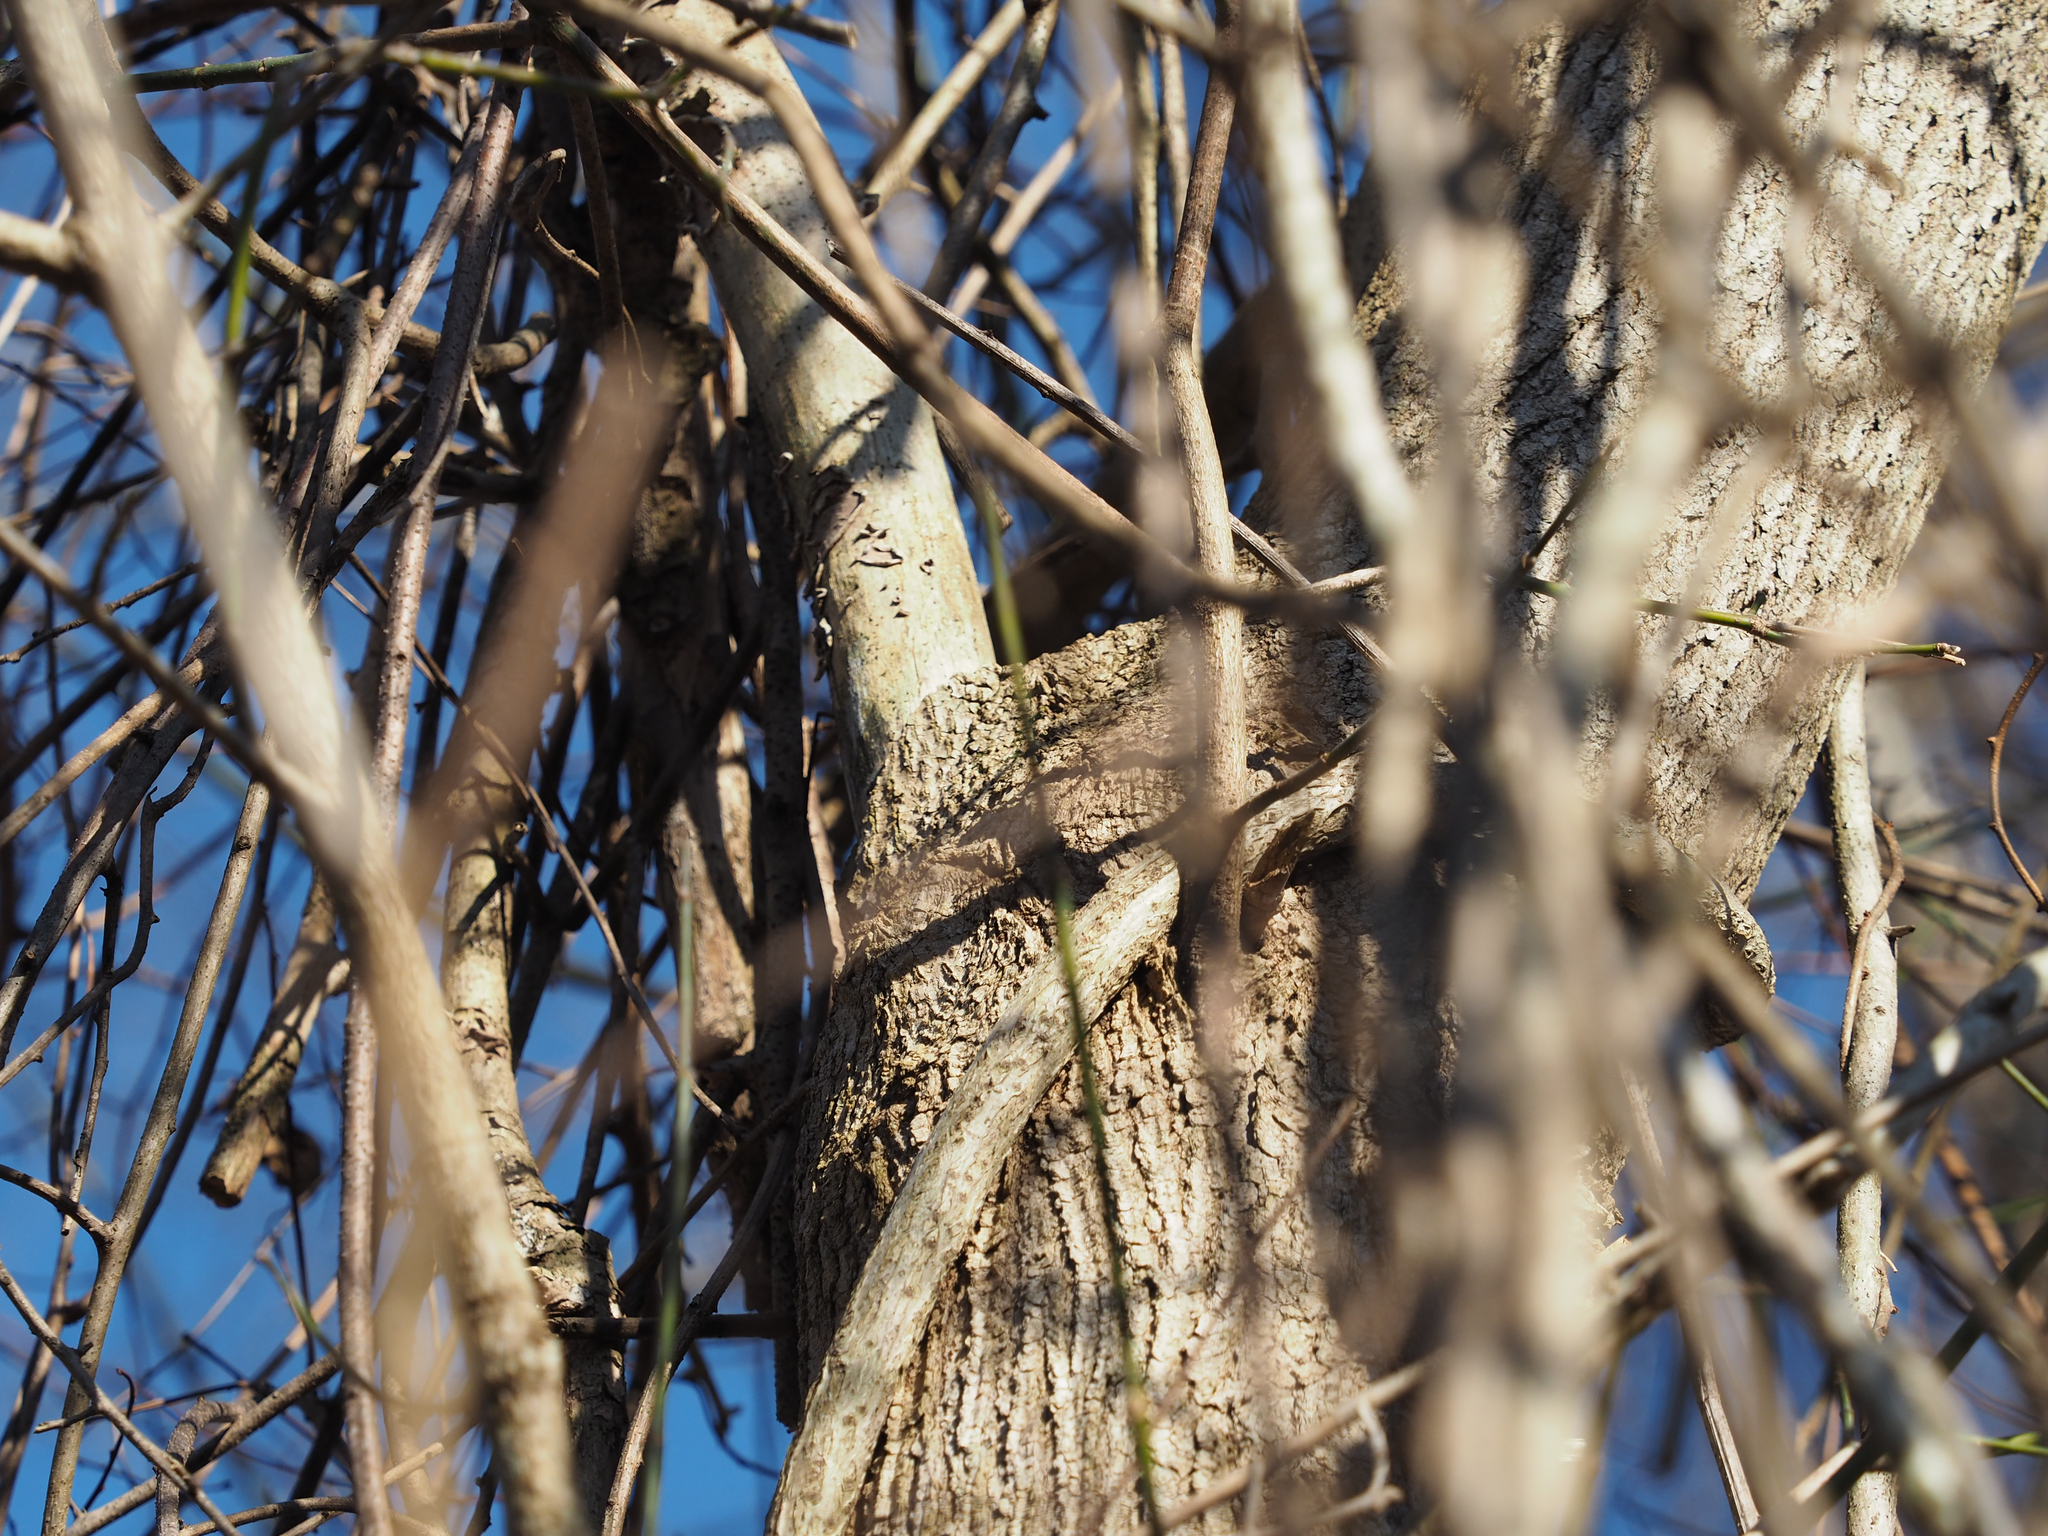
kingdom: Plantae
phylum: Tracheophyta
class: Magnoliopsida
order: Sapindales
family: Sapindaceae
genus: Acer
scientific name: Acer negundo
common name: Ashleaf maple
